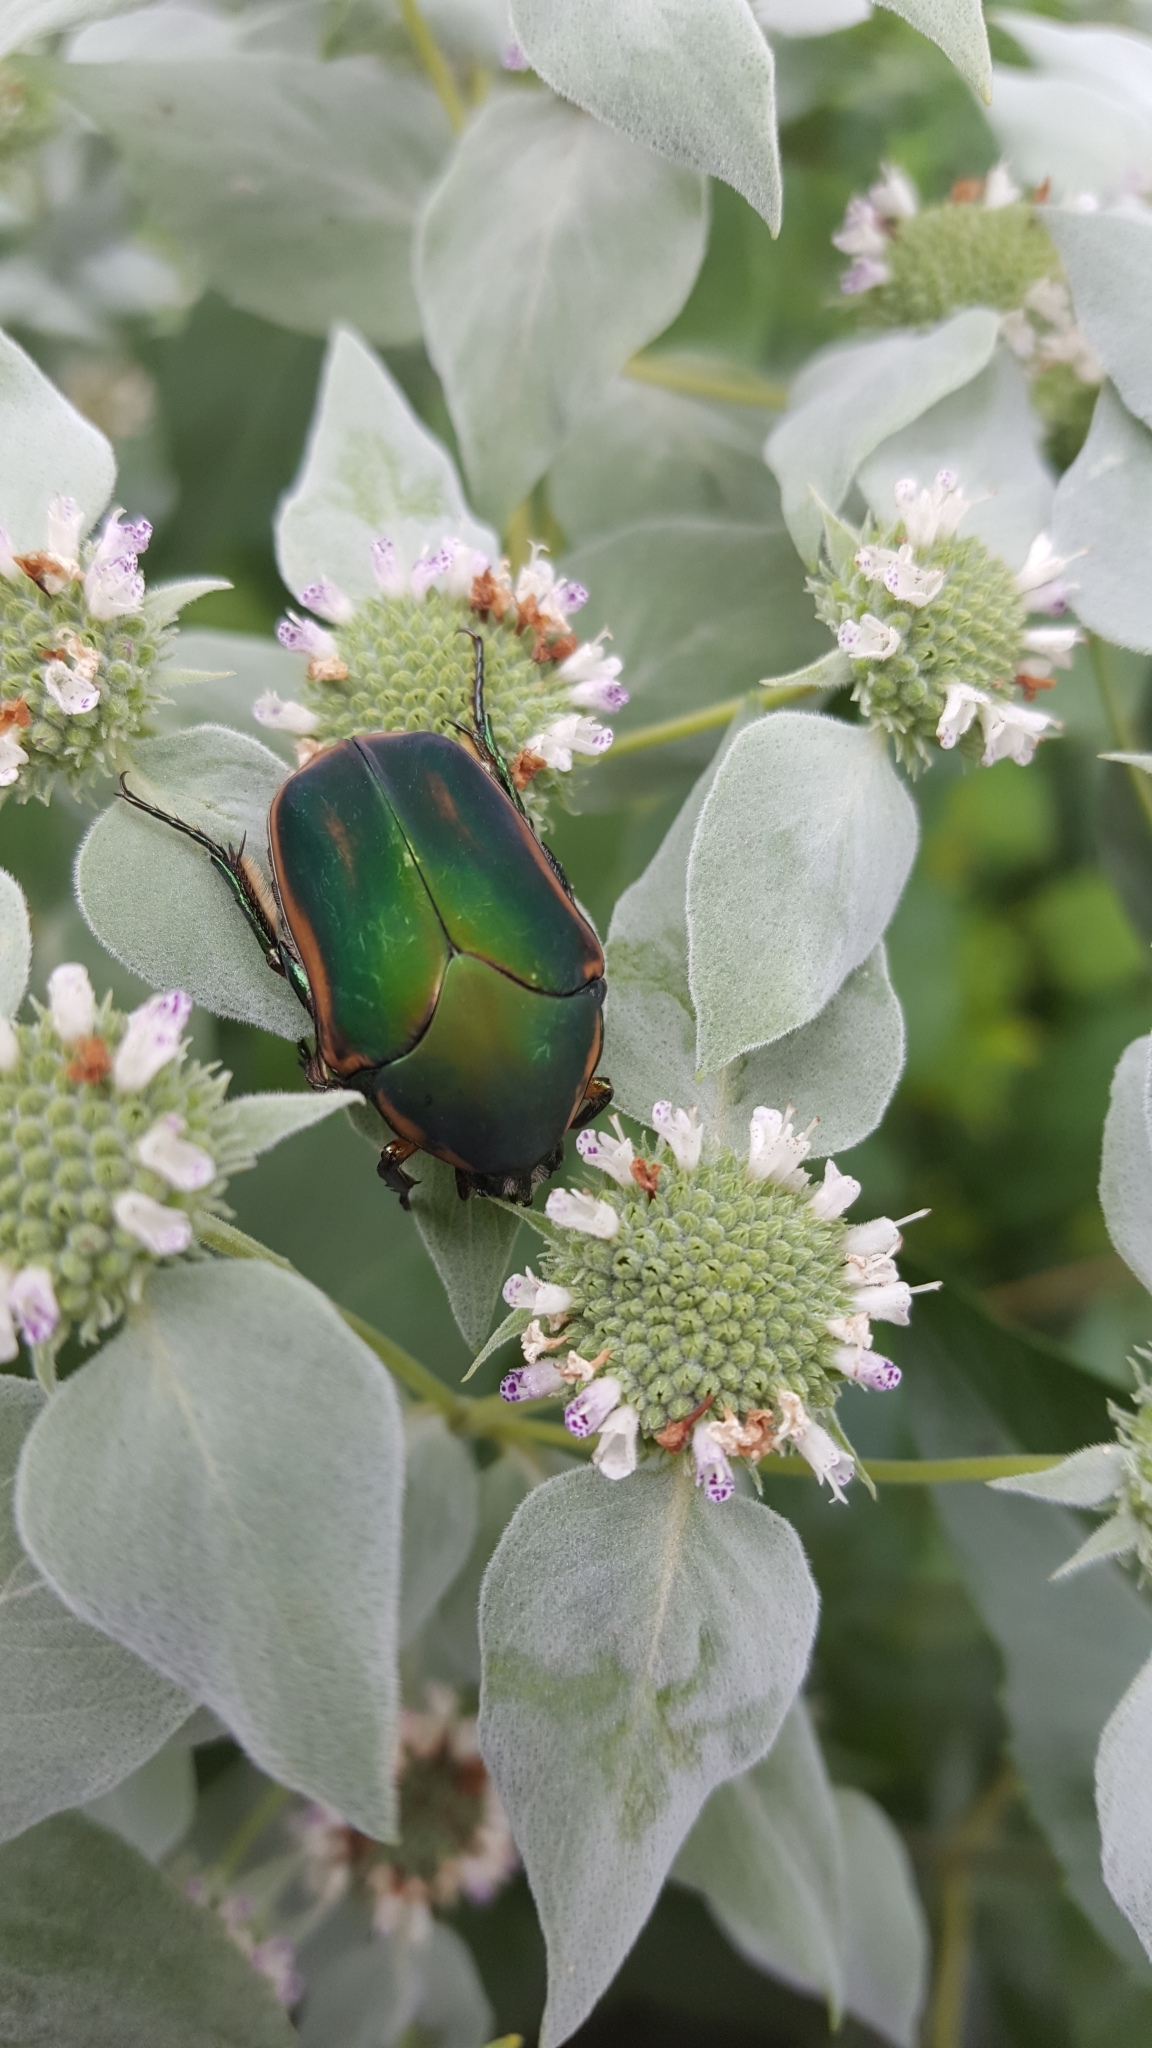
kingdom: Animalia
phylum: Arthropoda
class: Insecta
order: Coleoptera
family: Scarabaeidae
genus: Cotinis
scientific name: Cotinis nitida
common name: Common green june beetle
